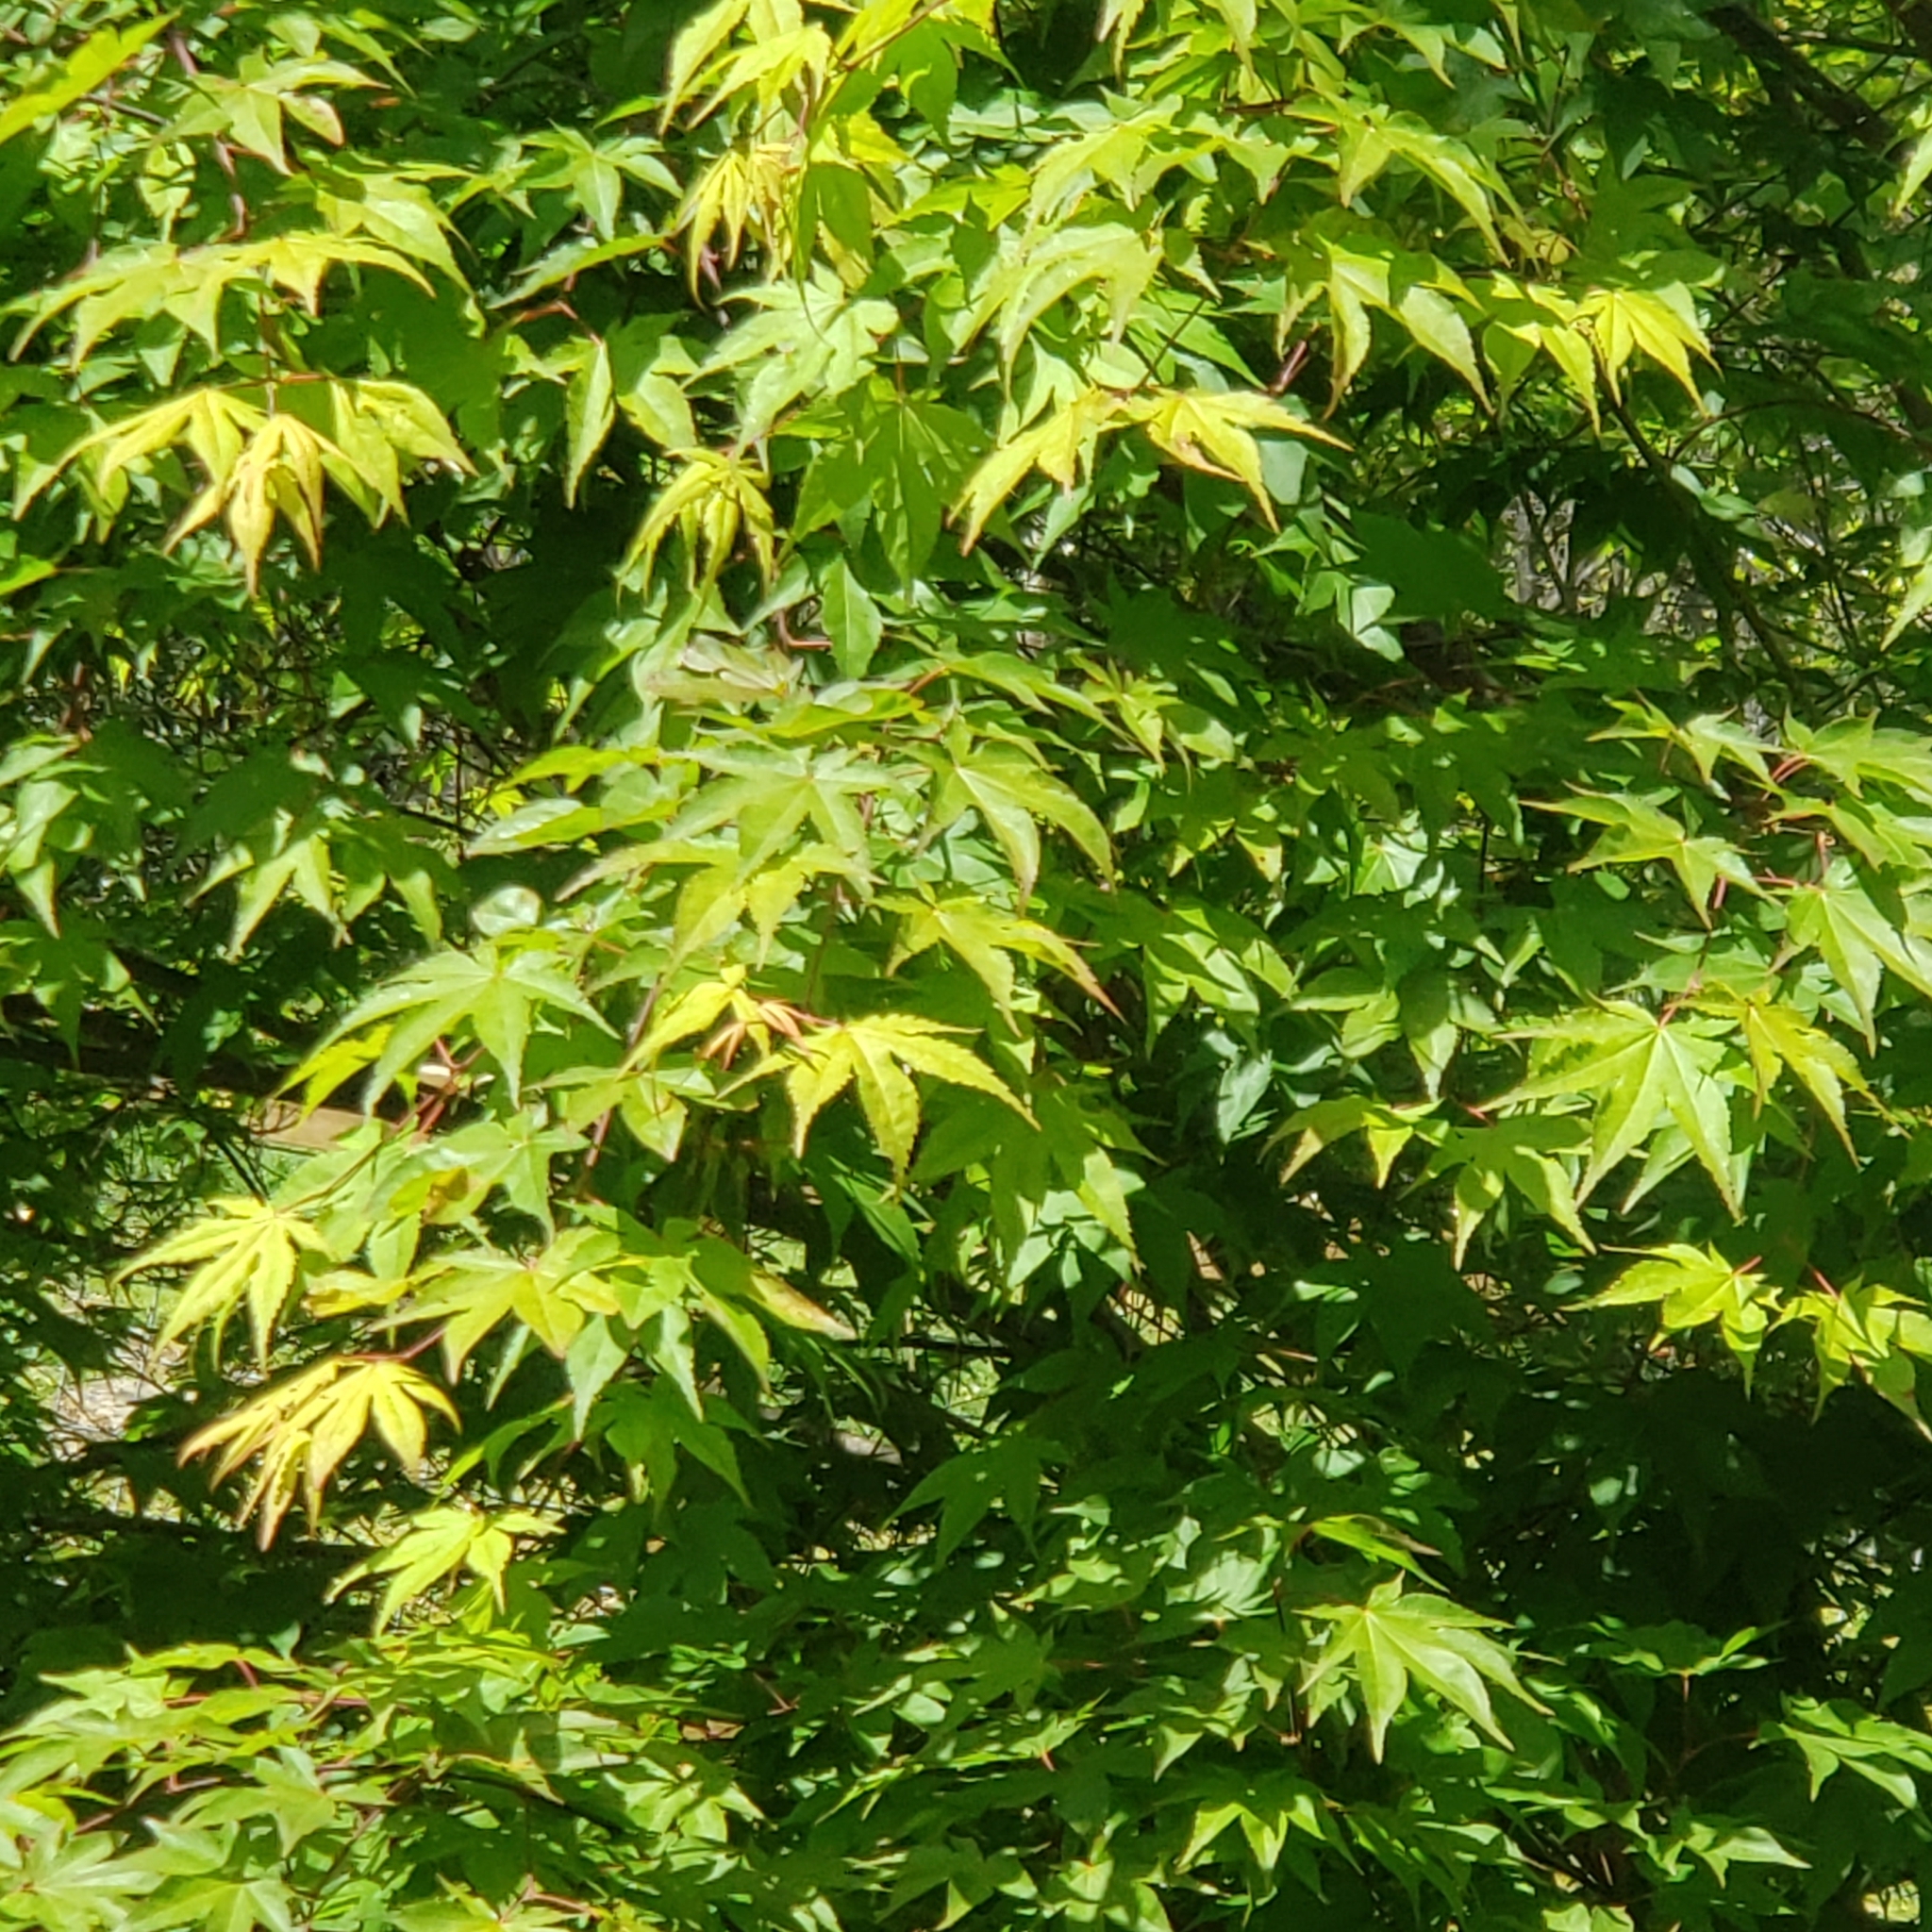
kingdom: Plantae
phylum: Tracheophyta
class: Magnoliopsida
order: Sapindales
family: Sapindaceae
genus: Acer
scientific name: Acer palmatum
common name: Japanese maple
